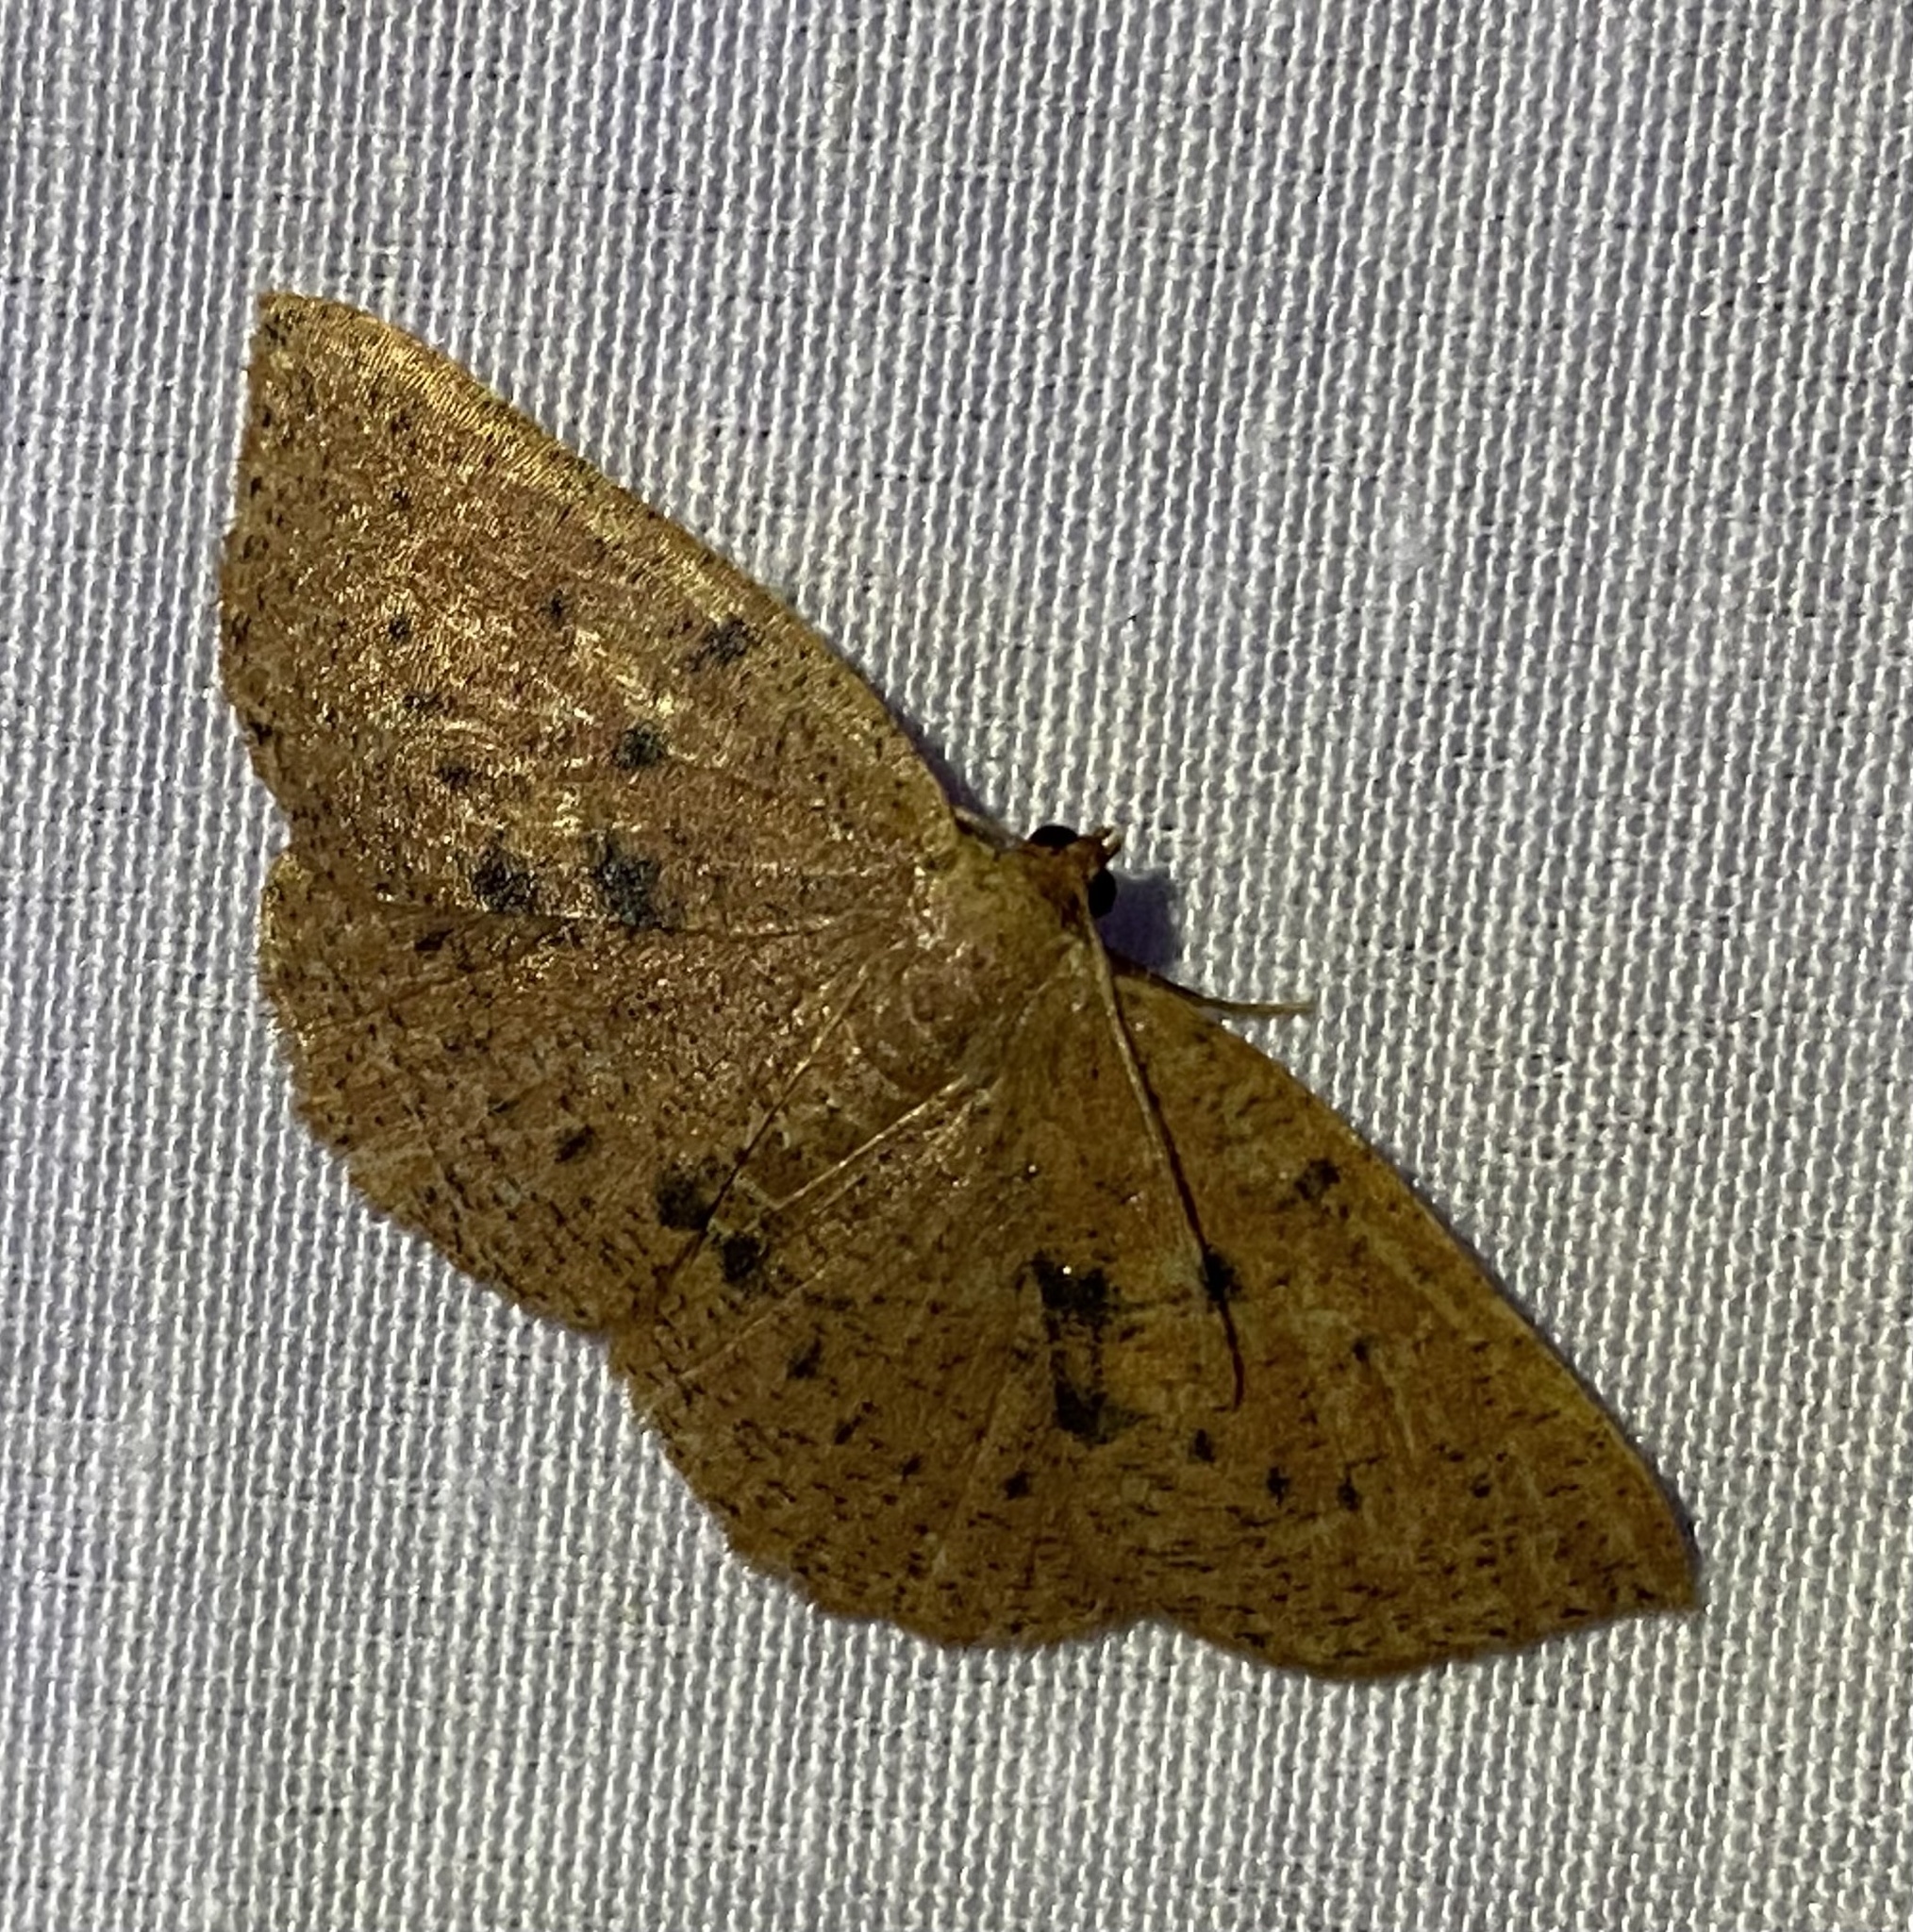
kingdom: Animalia
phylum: Arthropoda
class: Insecta
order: Lepidoptera
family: Geometridae
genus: Episemasia
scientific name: Episemasia solitaria
